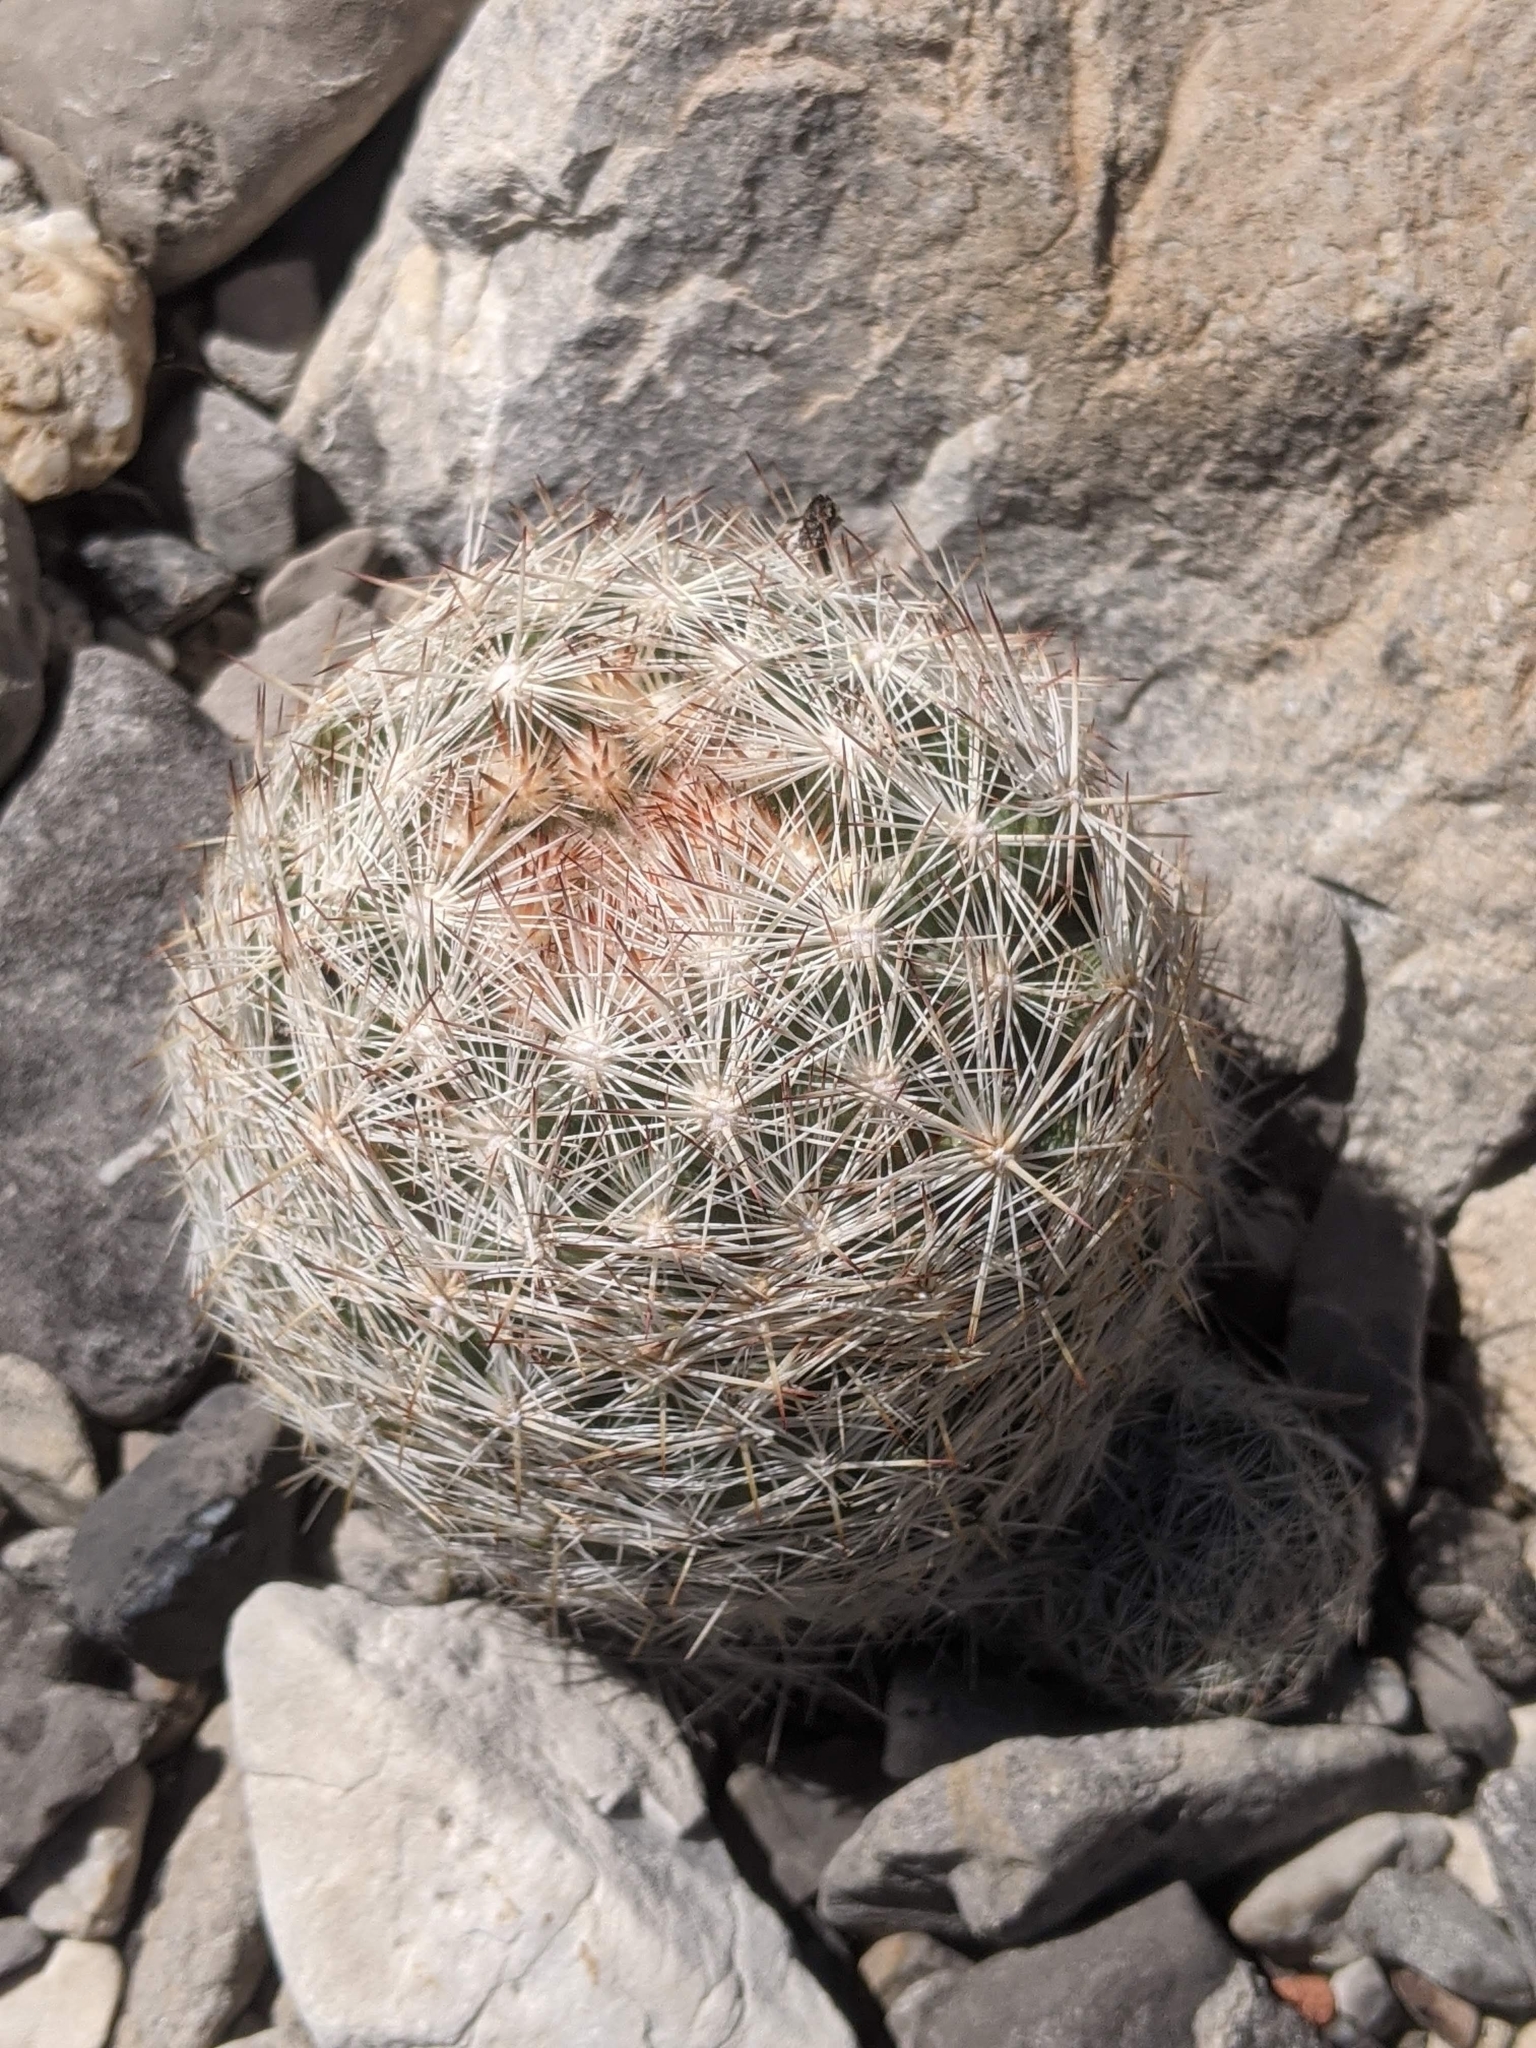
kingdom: Plantae
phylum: Tracheophyta
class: Magnoliopsida
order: Caryophyllales
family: Cactaceae
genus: Pelecyphora
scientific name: Pelecyphora dasyacantha
